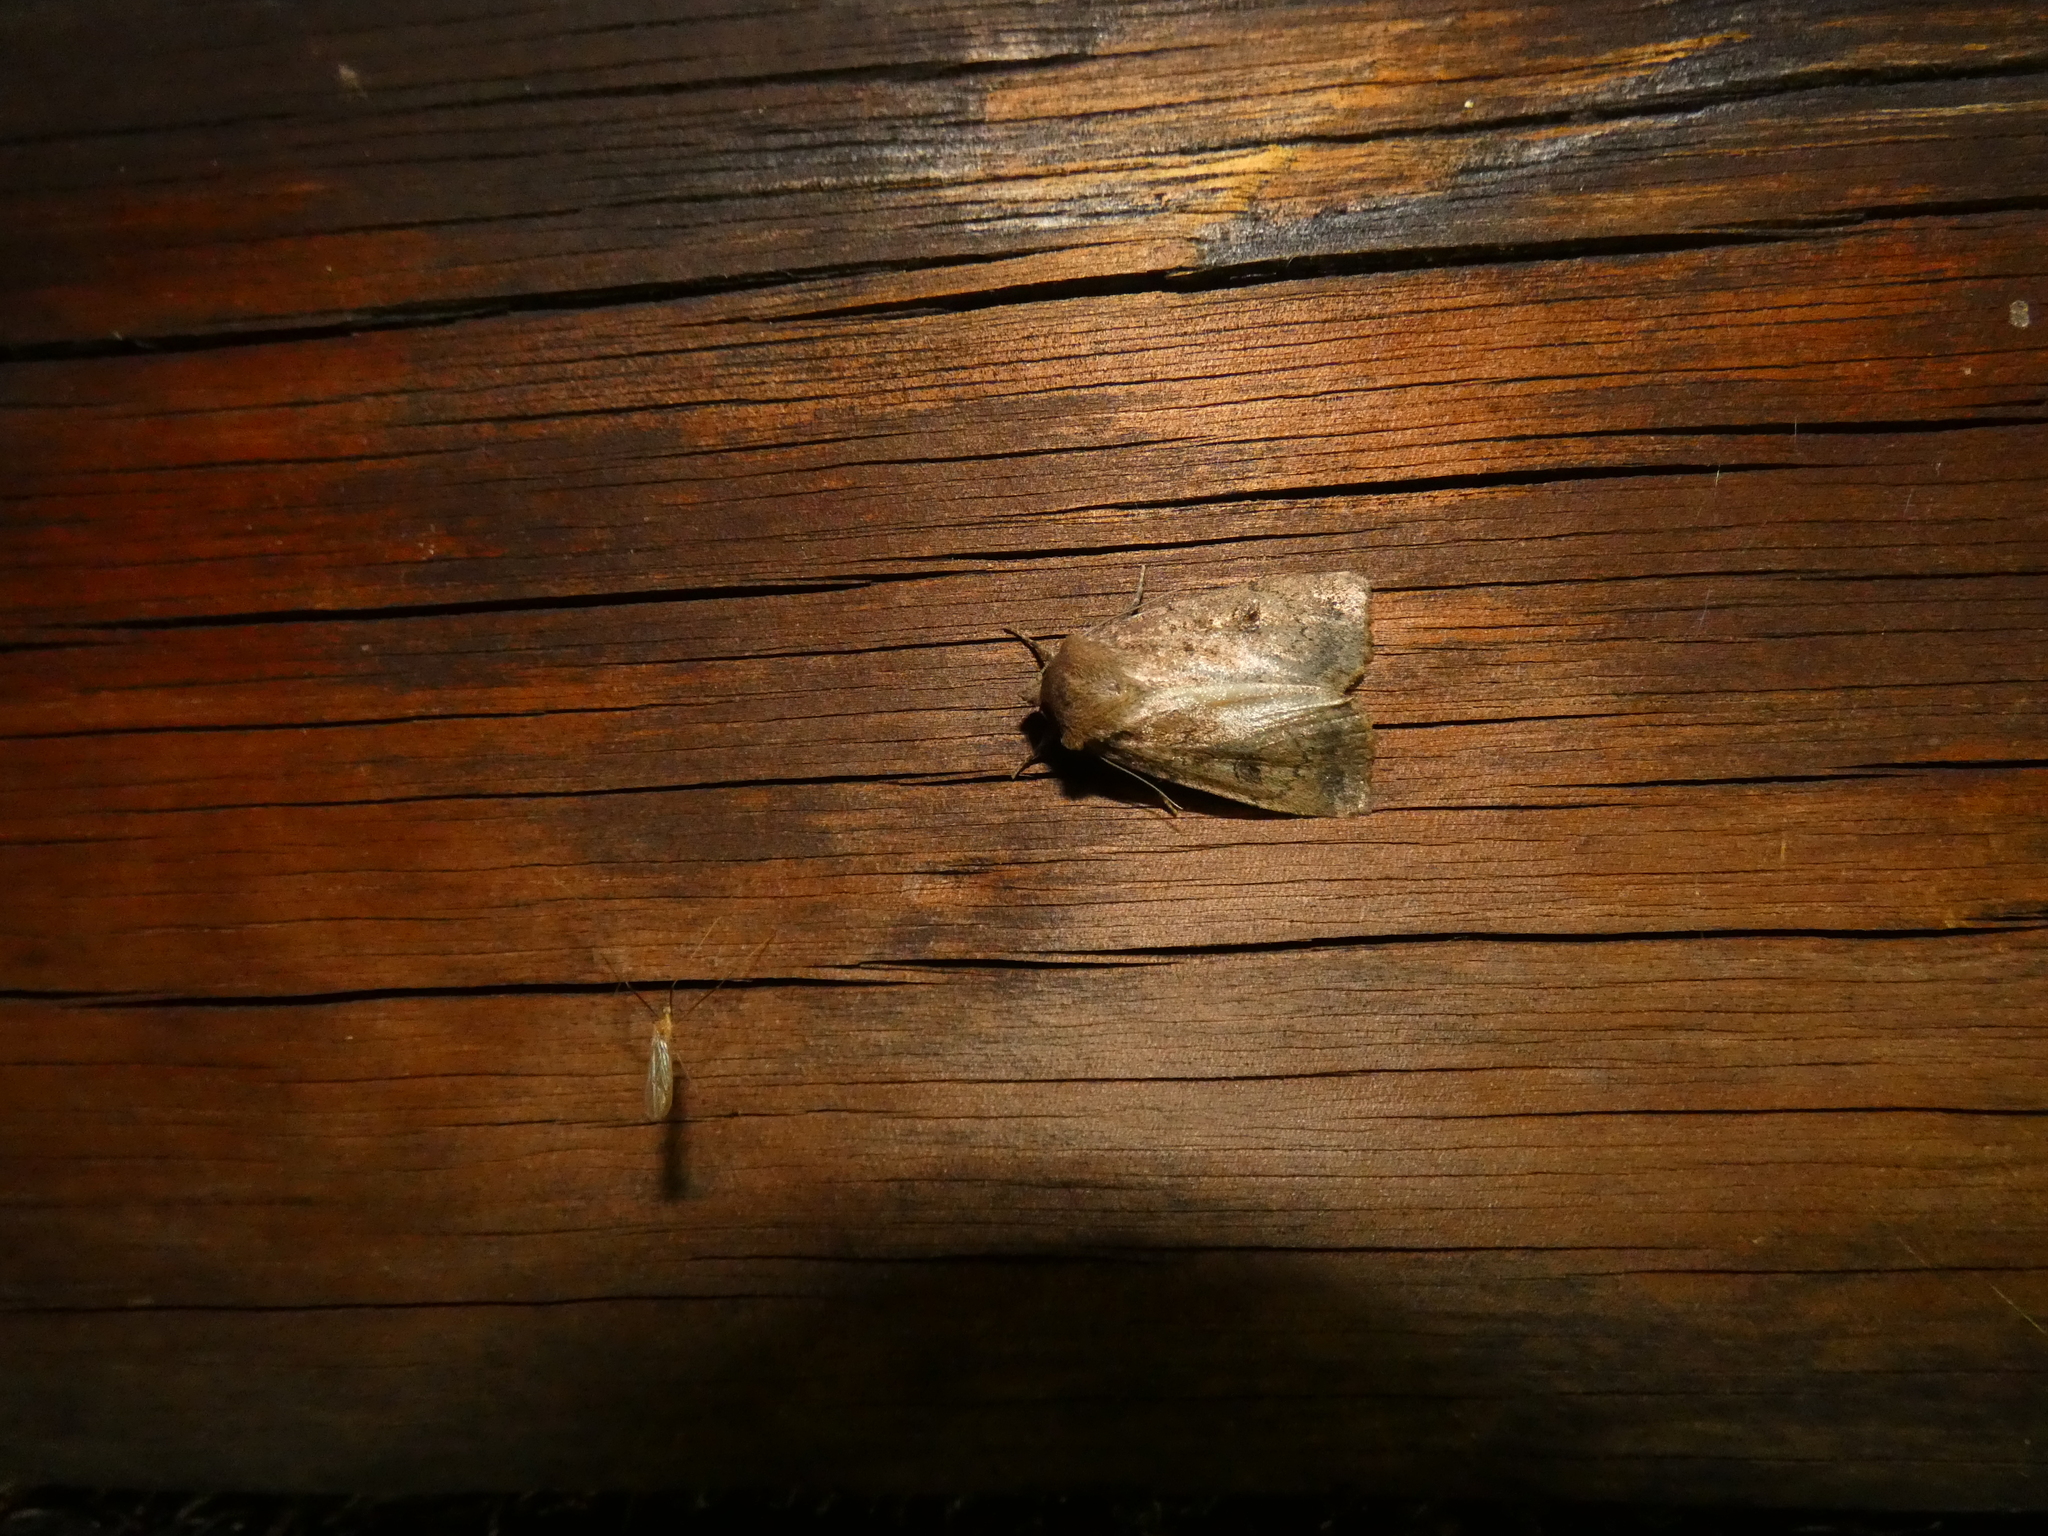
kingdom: Animalia
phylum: Arthropoda
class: Insecta
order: Lepidoptera
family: Noctuidae
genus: Graphiphora
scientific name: Graphiphora augur
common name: Double dart
